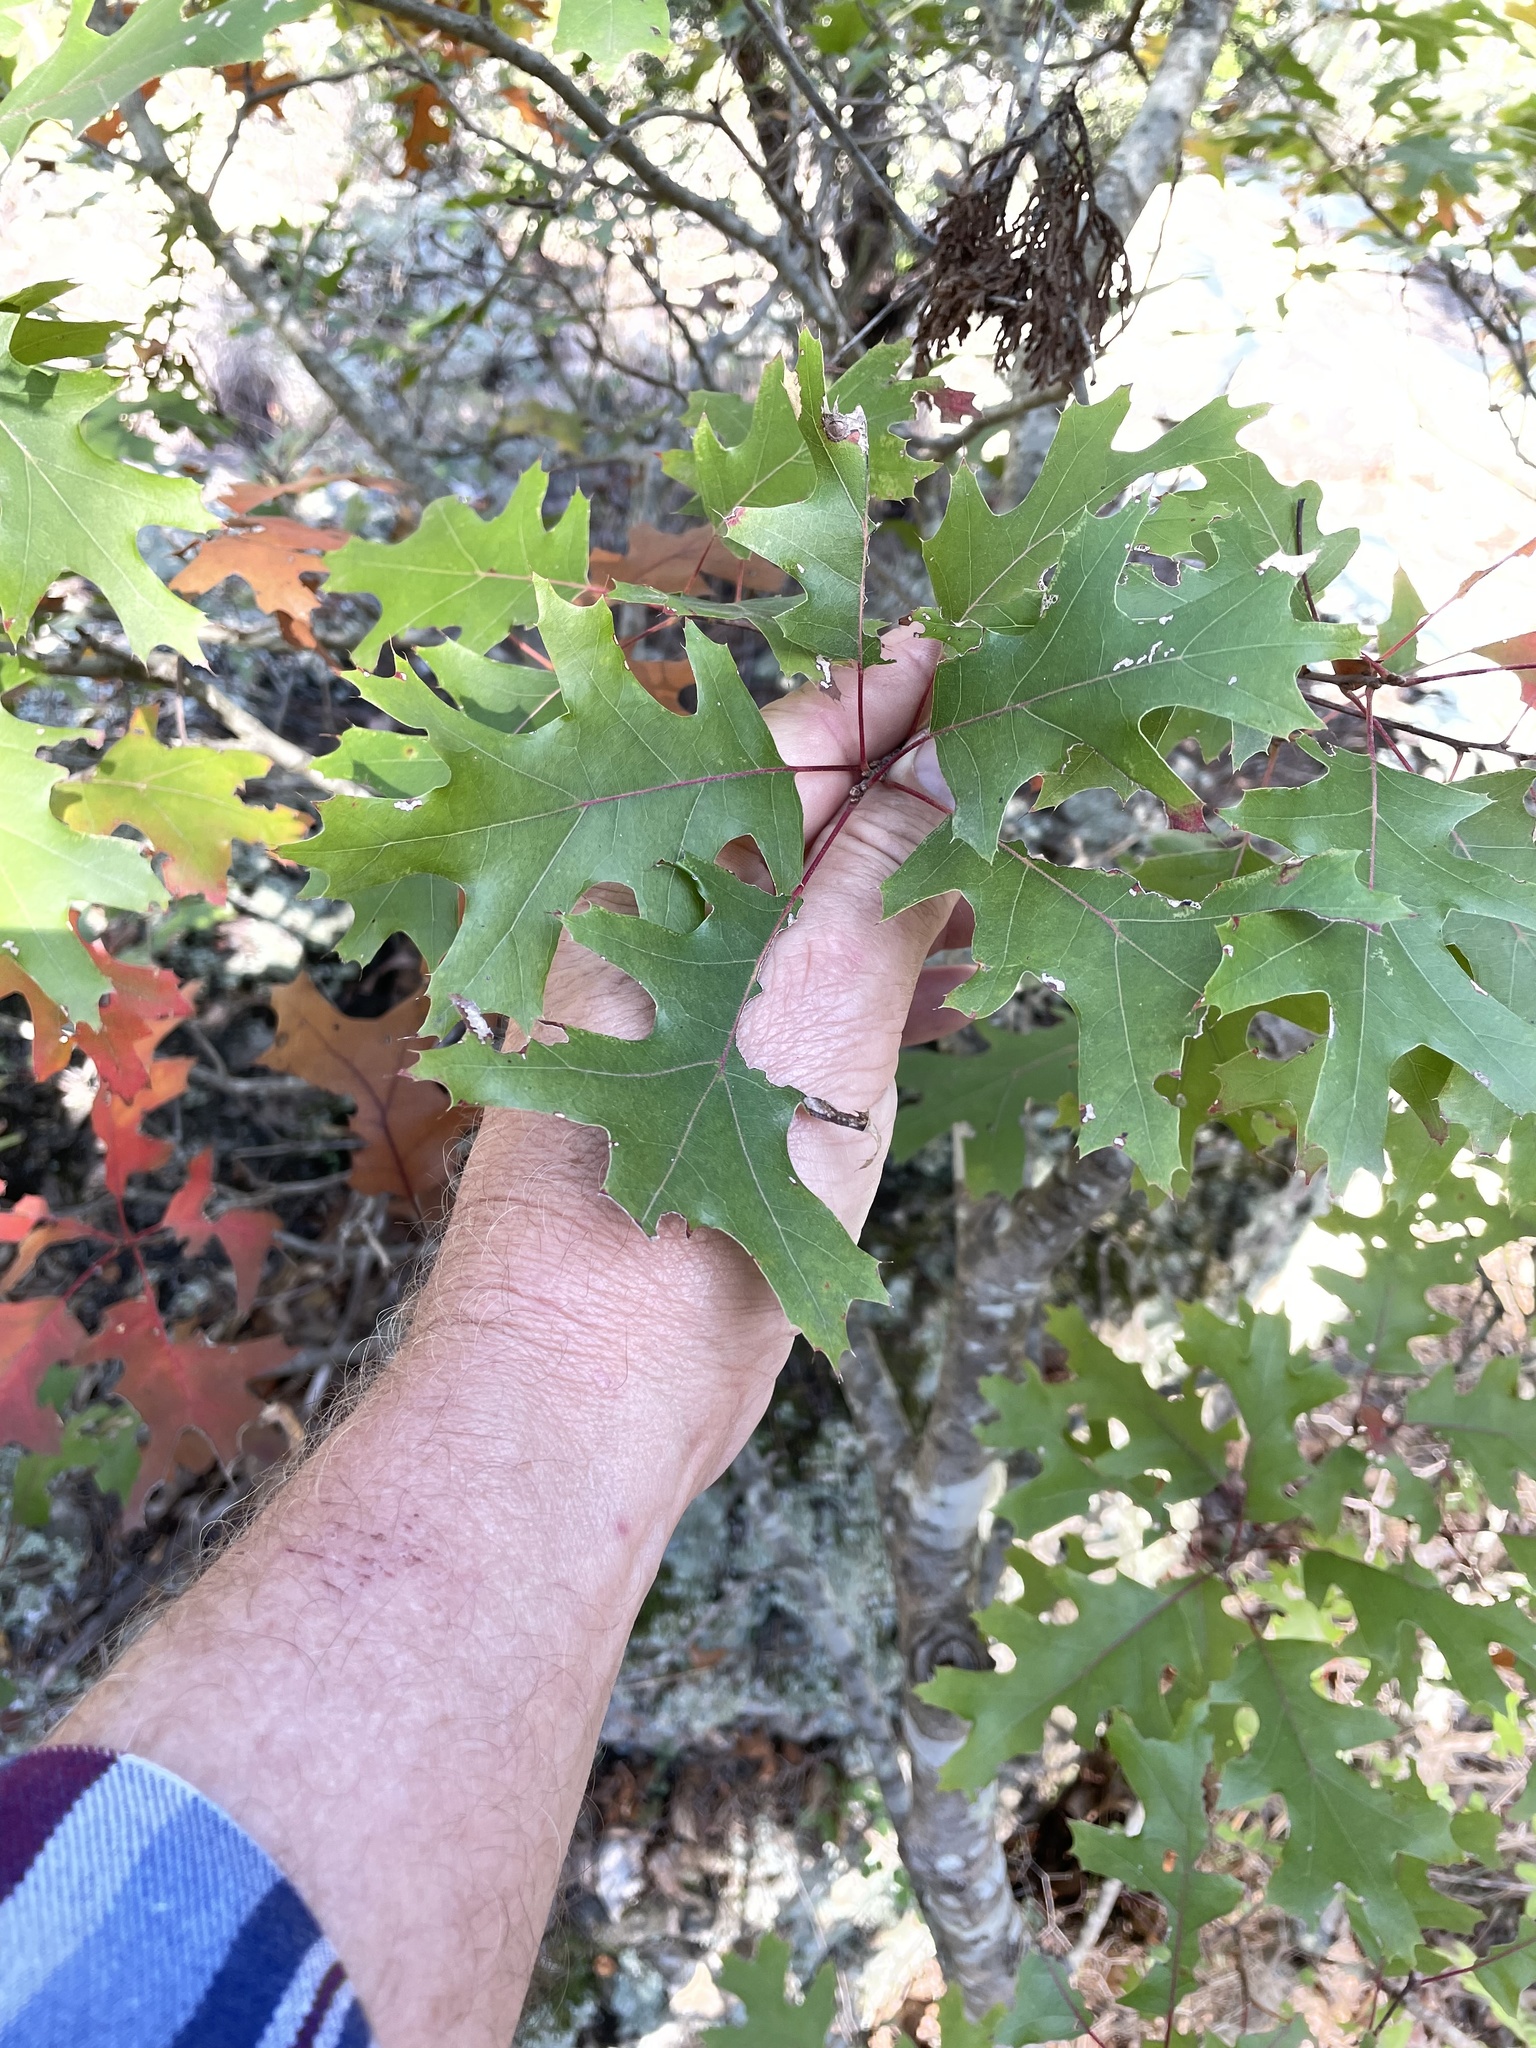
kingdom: Plantae
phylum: Tracheophyta
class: Magnoliopsida
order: Fagales
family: Fagaceae
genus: Quercus
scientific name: Quercus buckleyi
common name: Buckley oak
